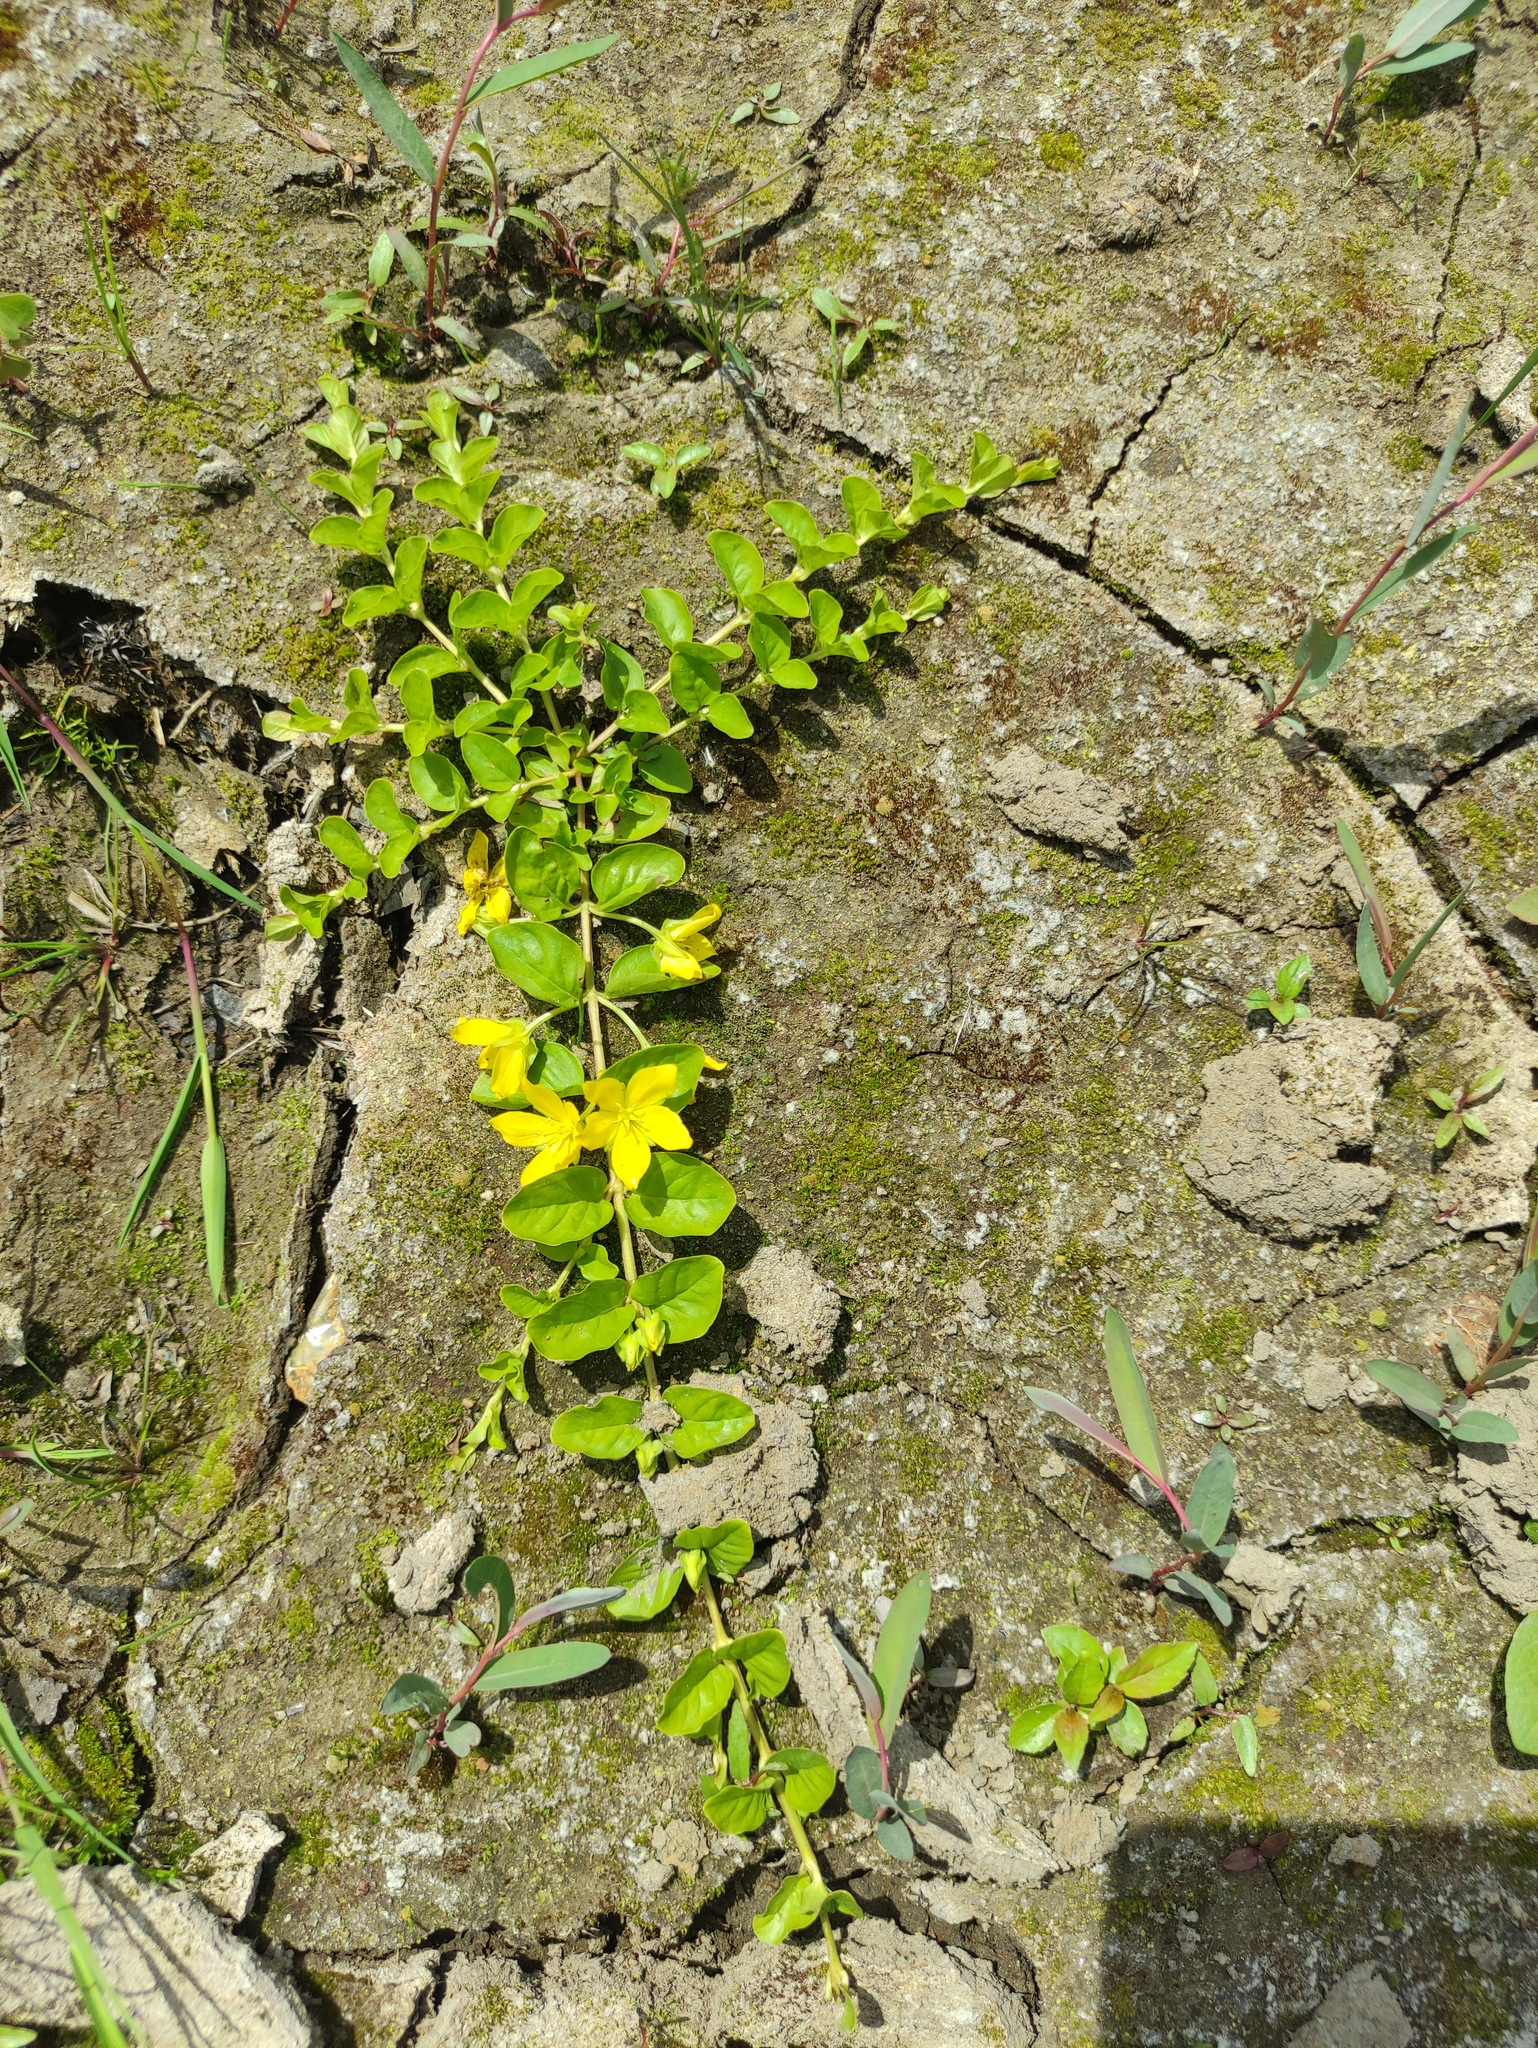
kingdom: Plantae
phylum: Tracheophyta
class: Magnoliopsida
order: Ericales
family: Primulaceae
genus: Lysimachia
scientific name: Lysimachia nummularia
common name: Moneywort
